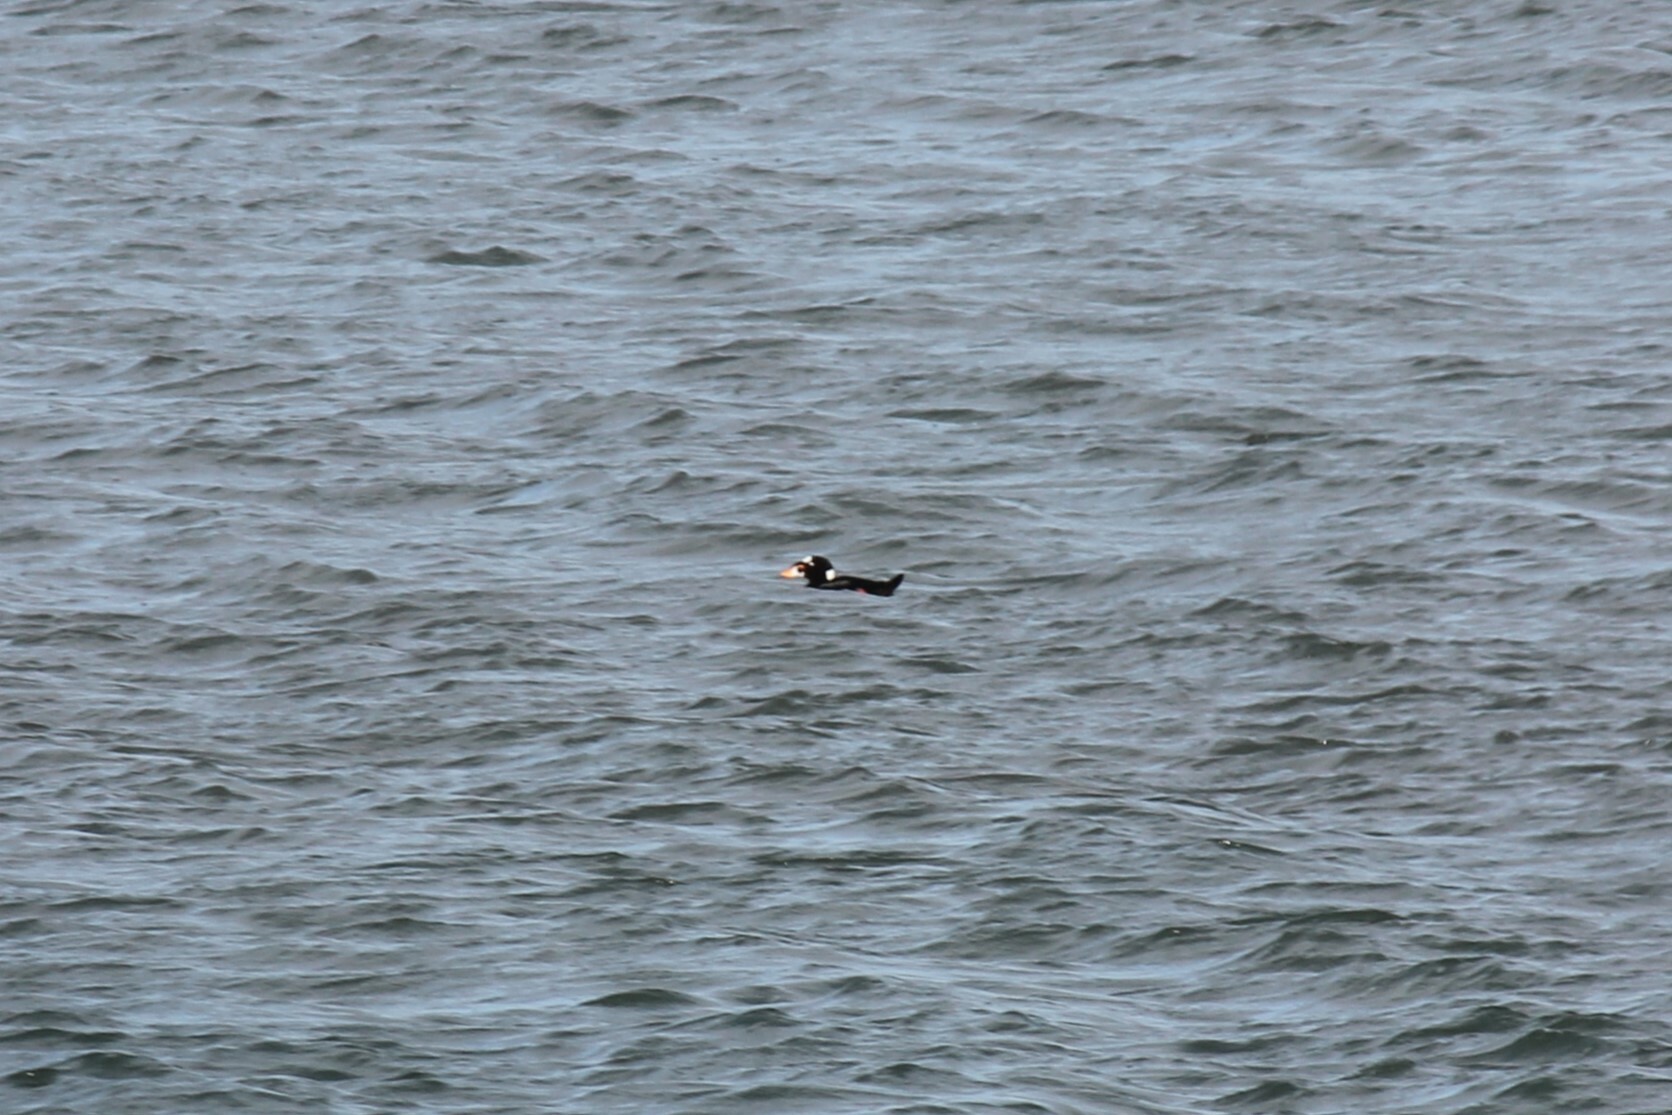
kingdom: Animalia
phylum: Chordata
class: Aves
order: Anseriformes
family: Anatidae
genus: Melanitta
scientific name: Melanitta perspicillata
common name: Surf scoter
